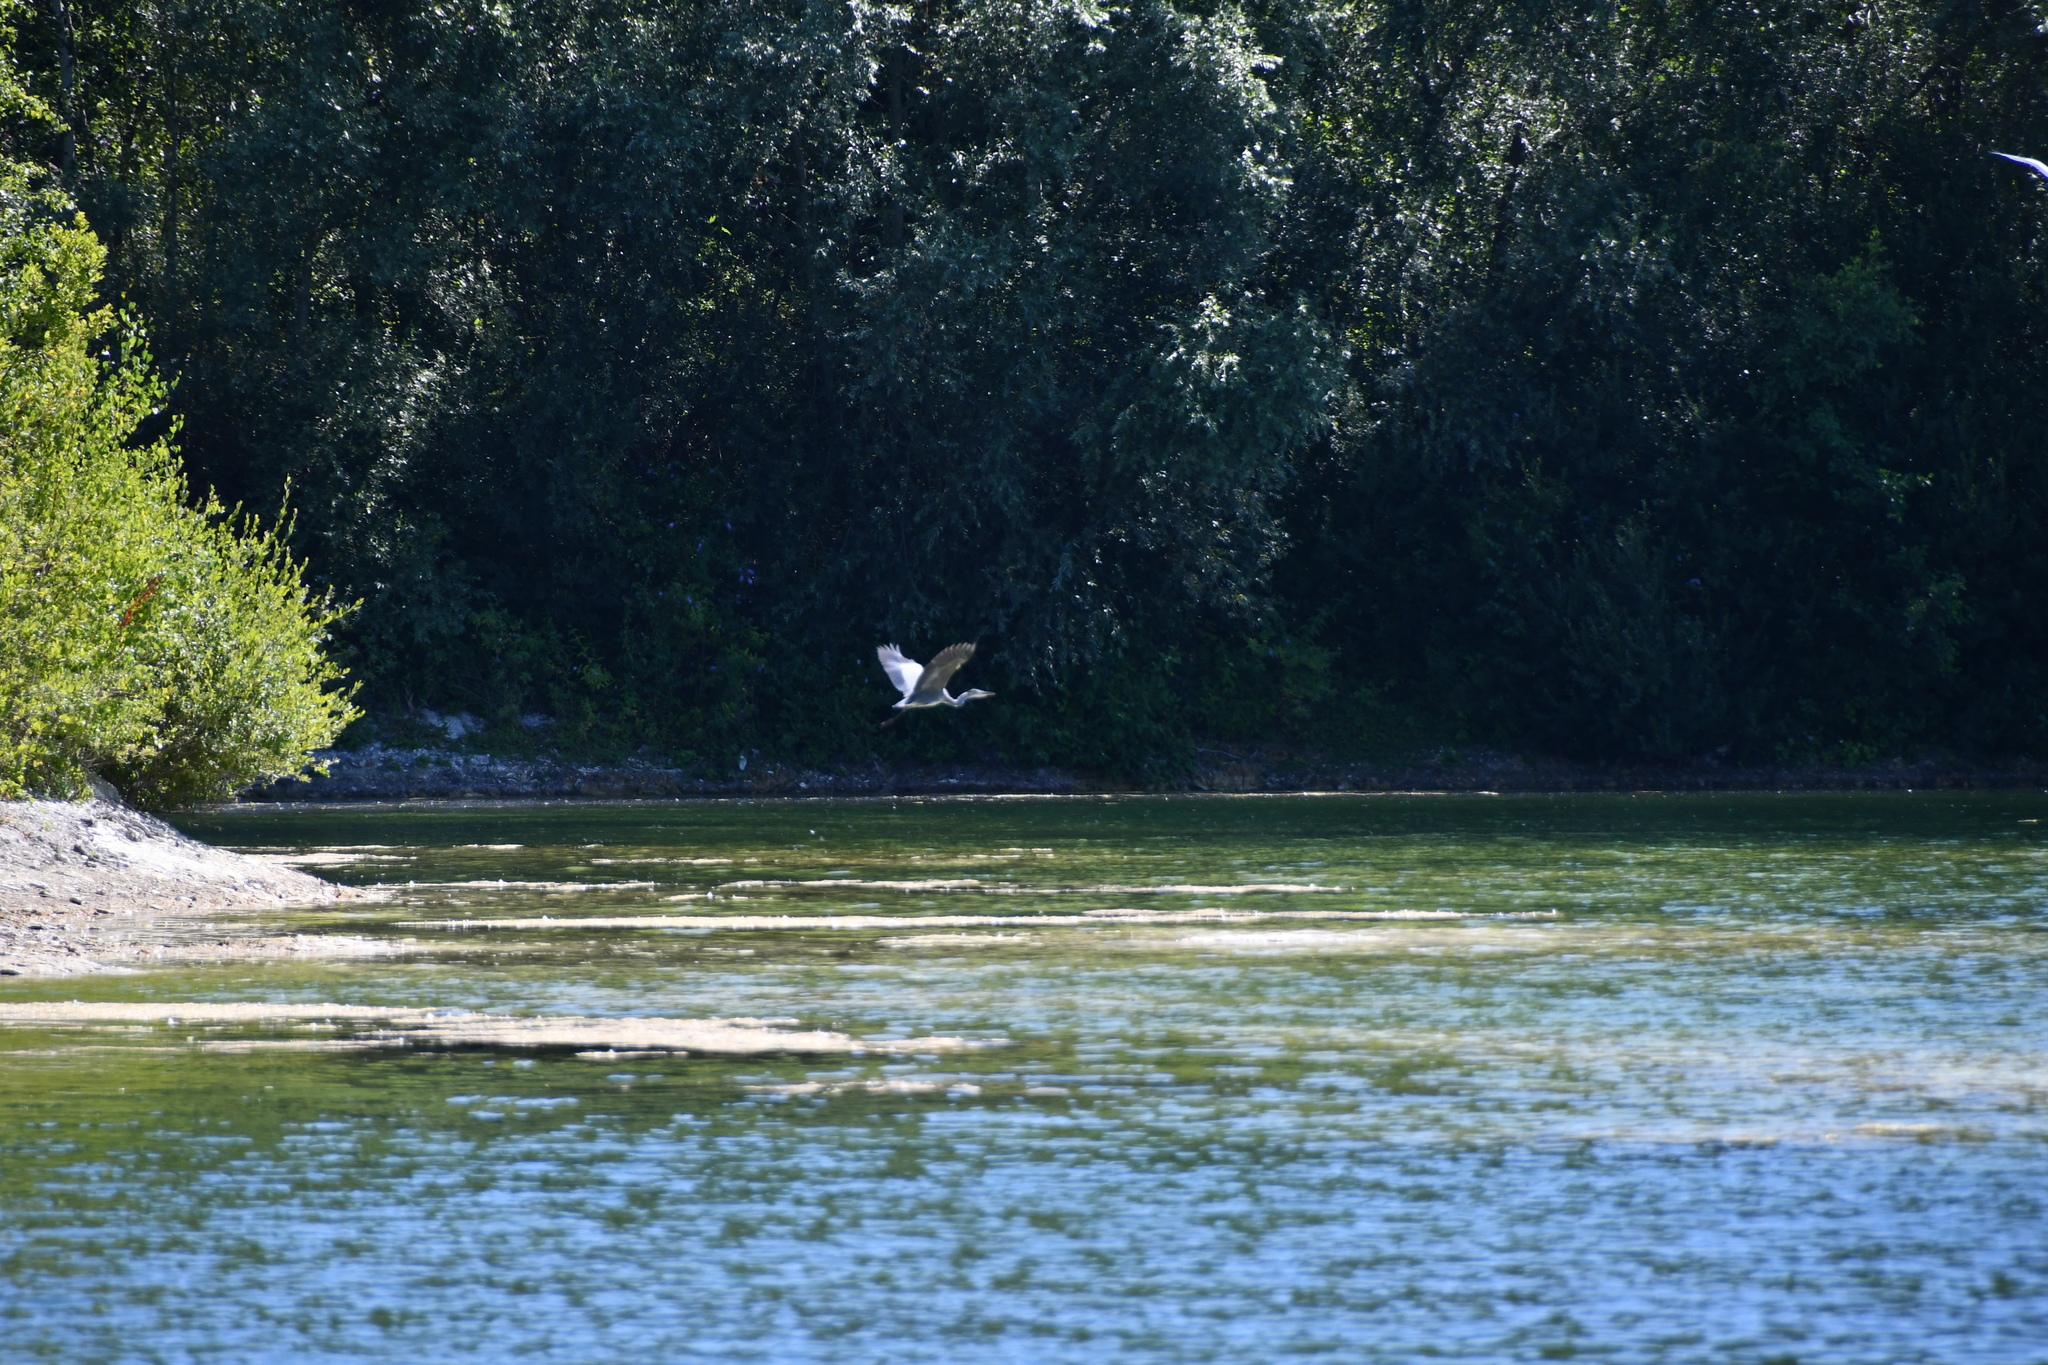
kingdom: Animalia
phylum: Chordata
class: Aves
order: Pelecaniformes
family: Ardeidae
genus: Ardea
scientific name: Ardea cinerea
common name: Grey heron
